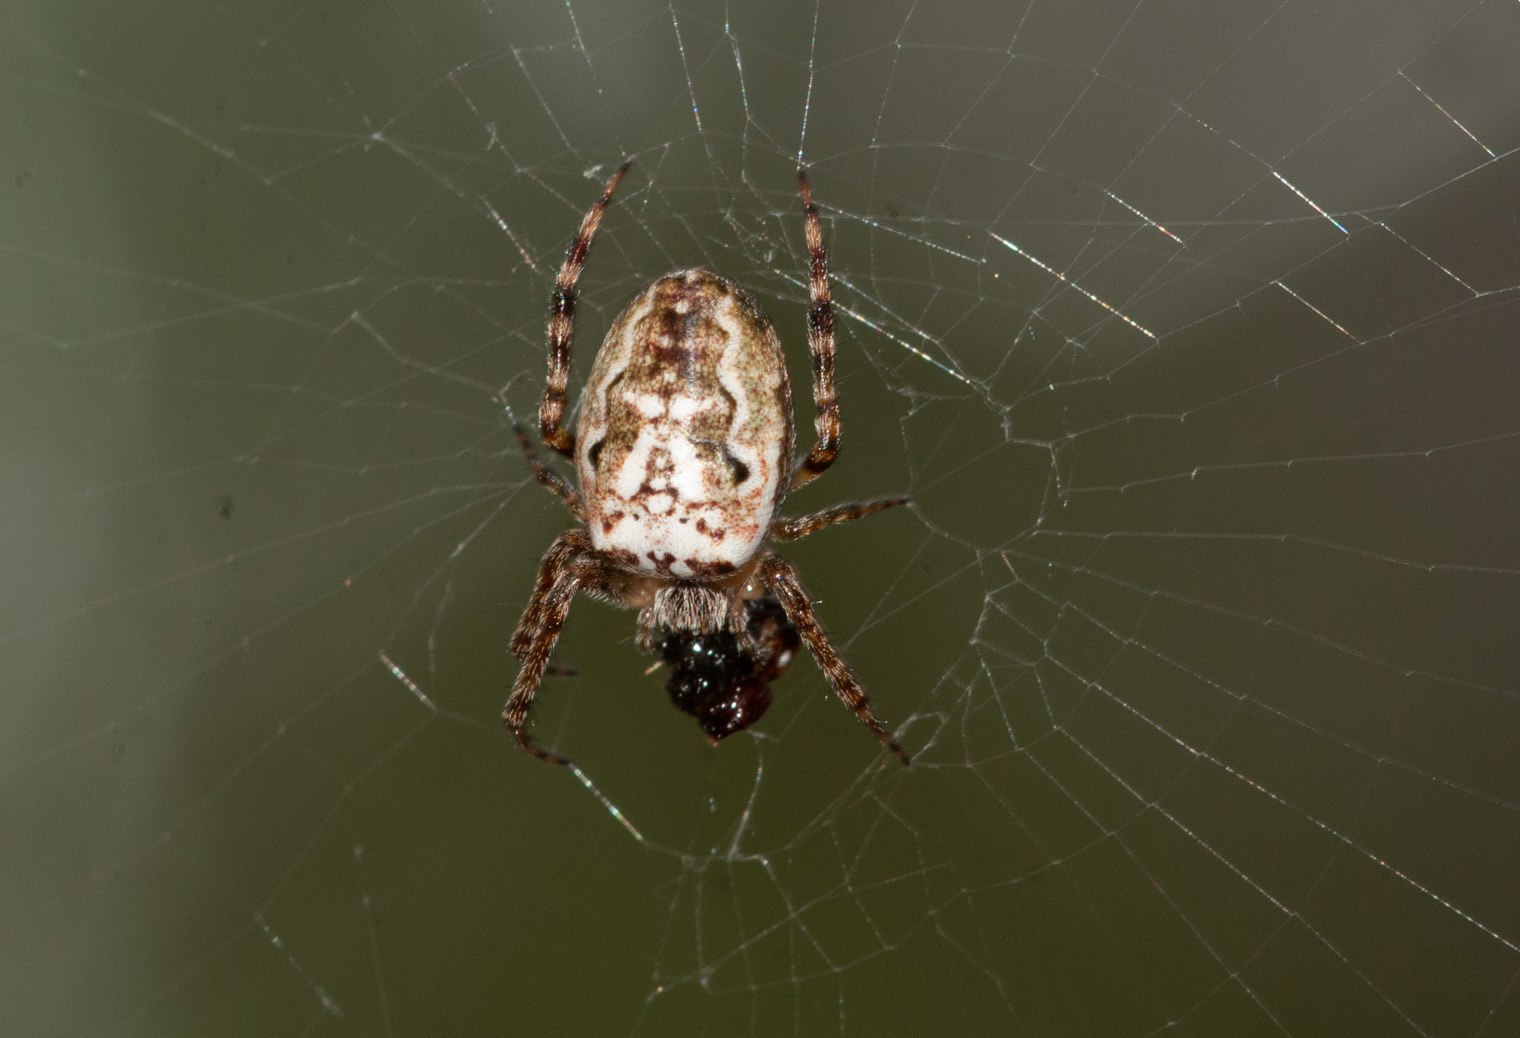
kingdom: Animalia
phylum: Arthropoda
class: Arachnida
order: Araneae
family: Araneidae
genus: Plebs
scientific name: Plebs eburnus
